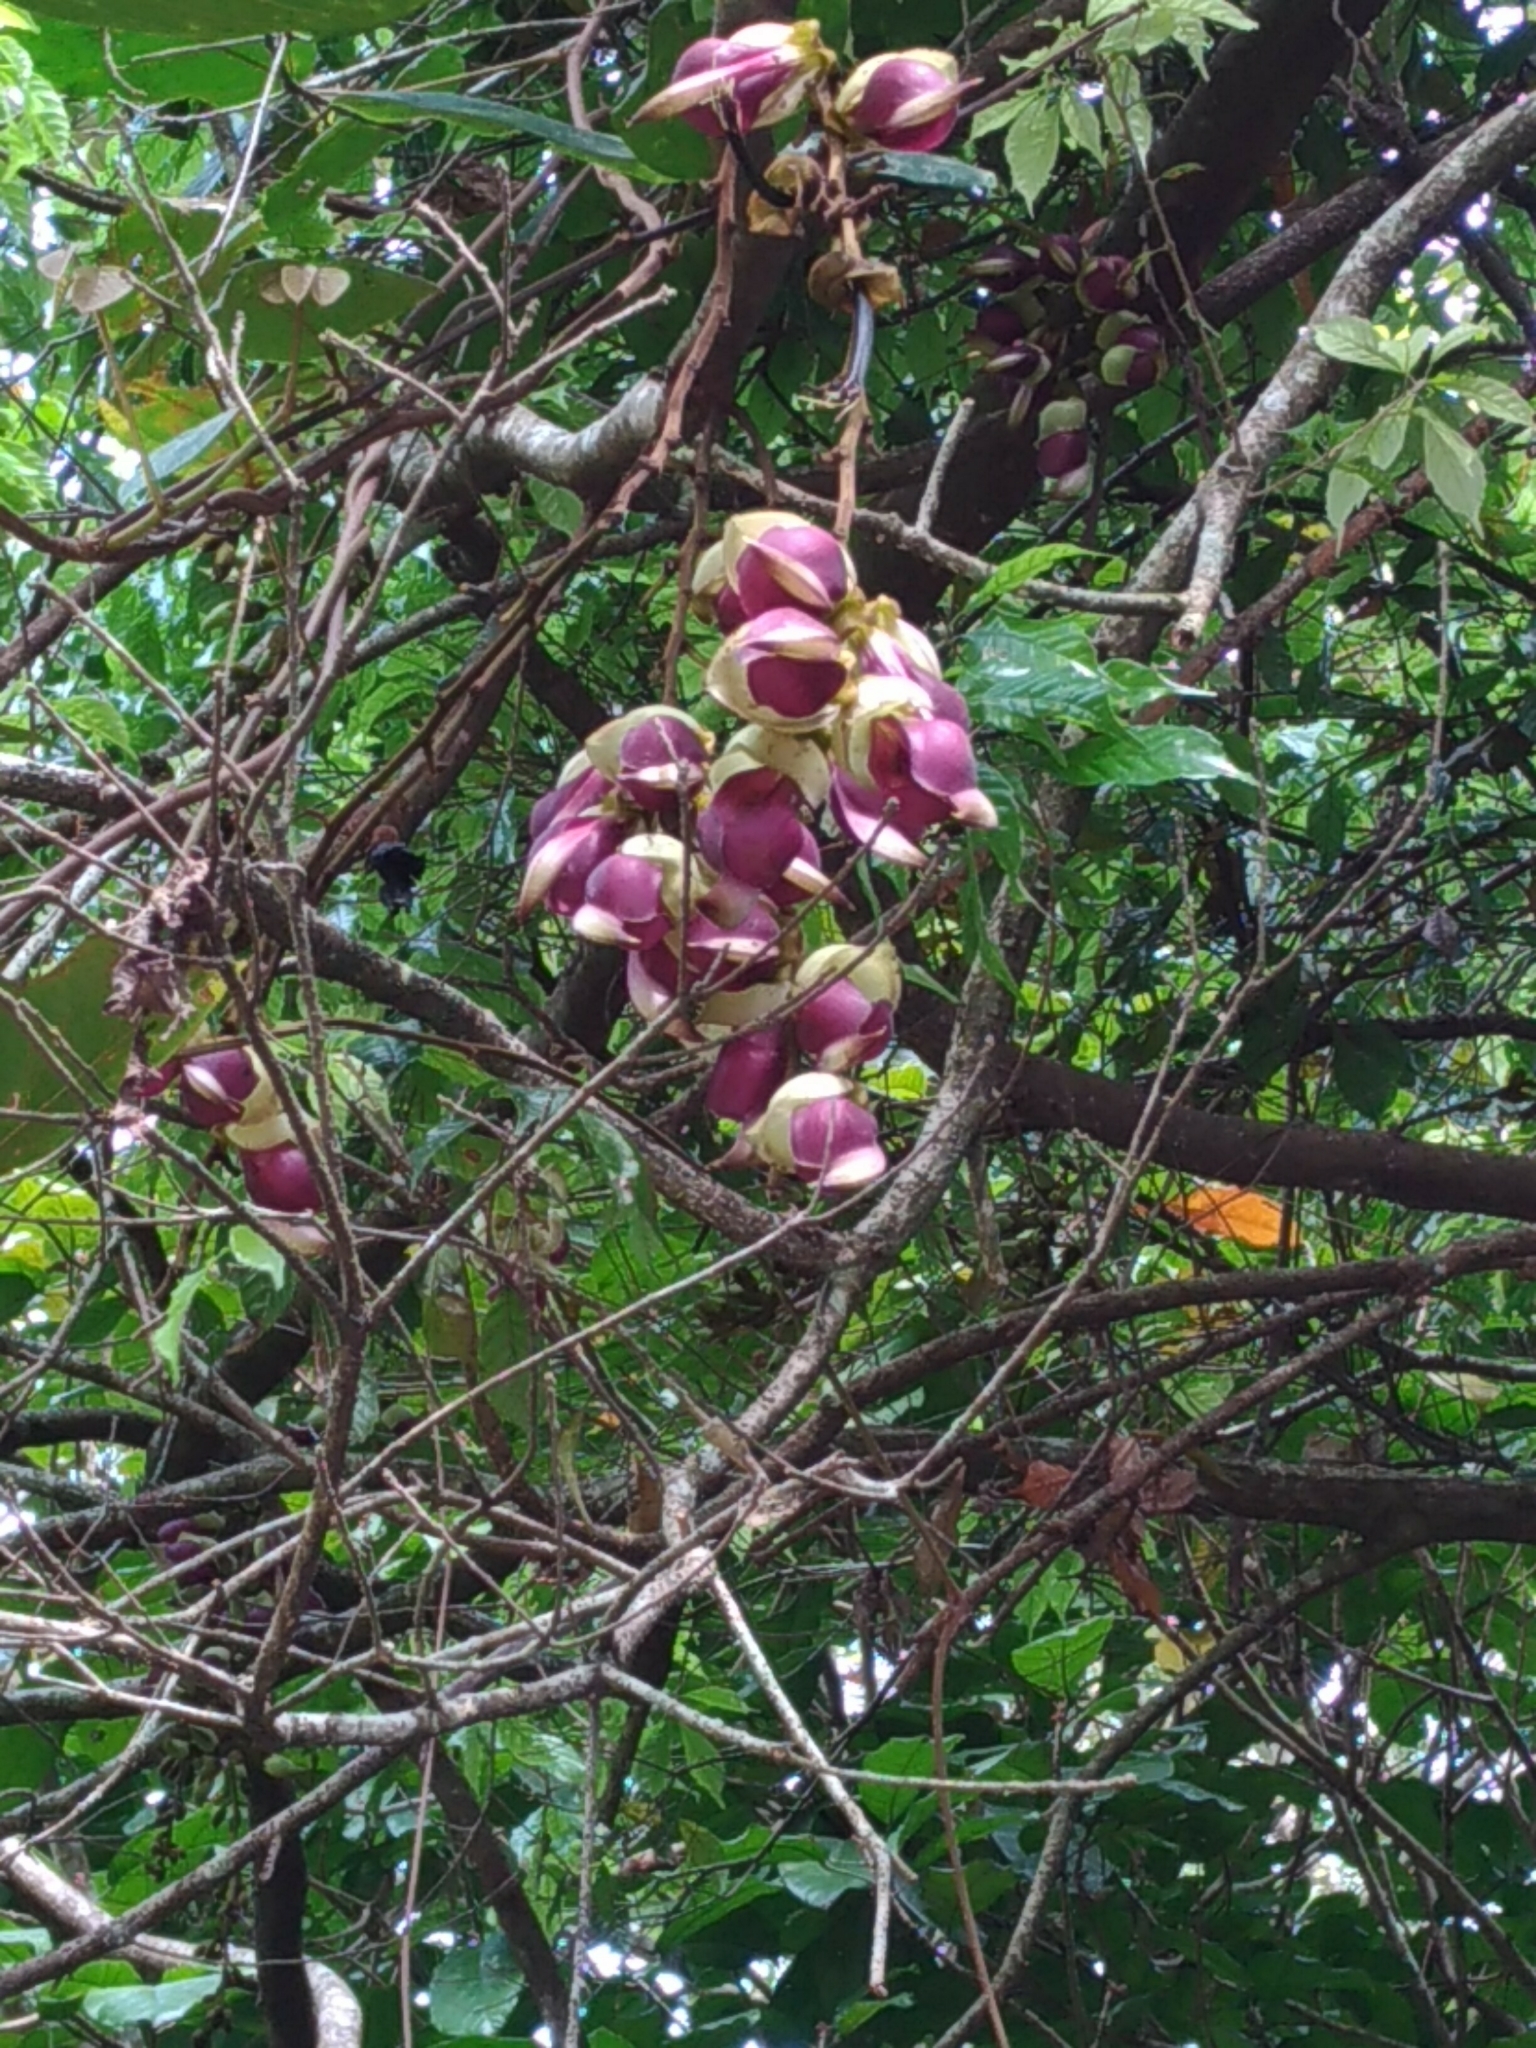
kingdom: Plantae
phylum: Tracheophyta
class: Magnoliopsida
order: Fabales
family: Fabaceae
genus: Mucuna
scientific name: Mucuna macrocarpa
